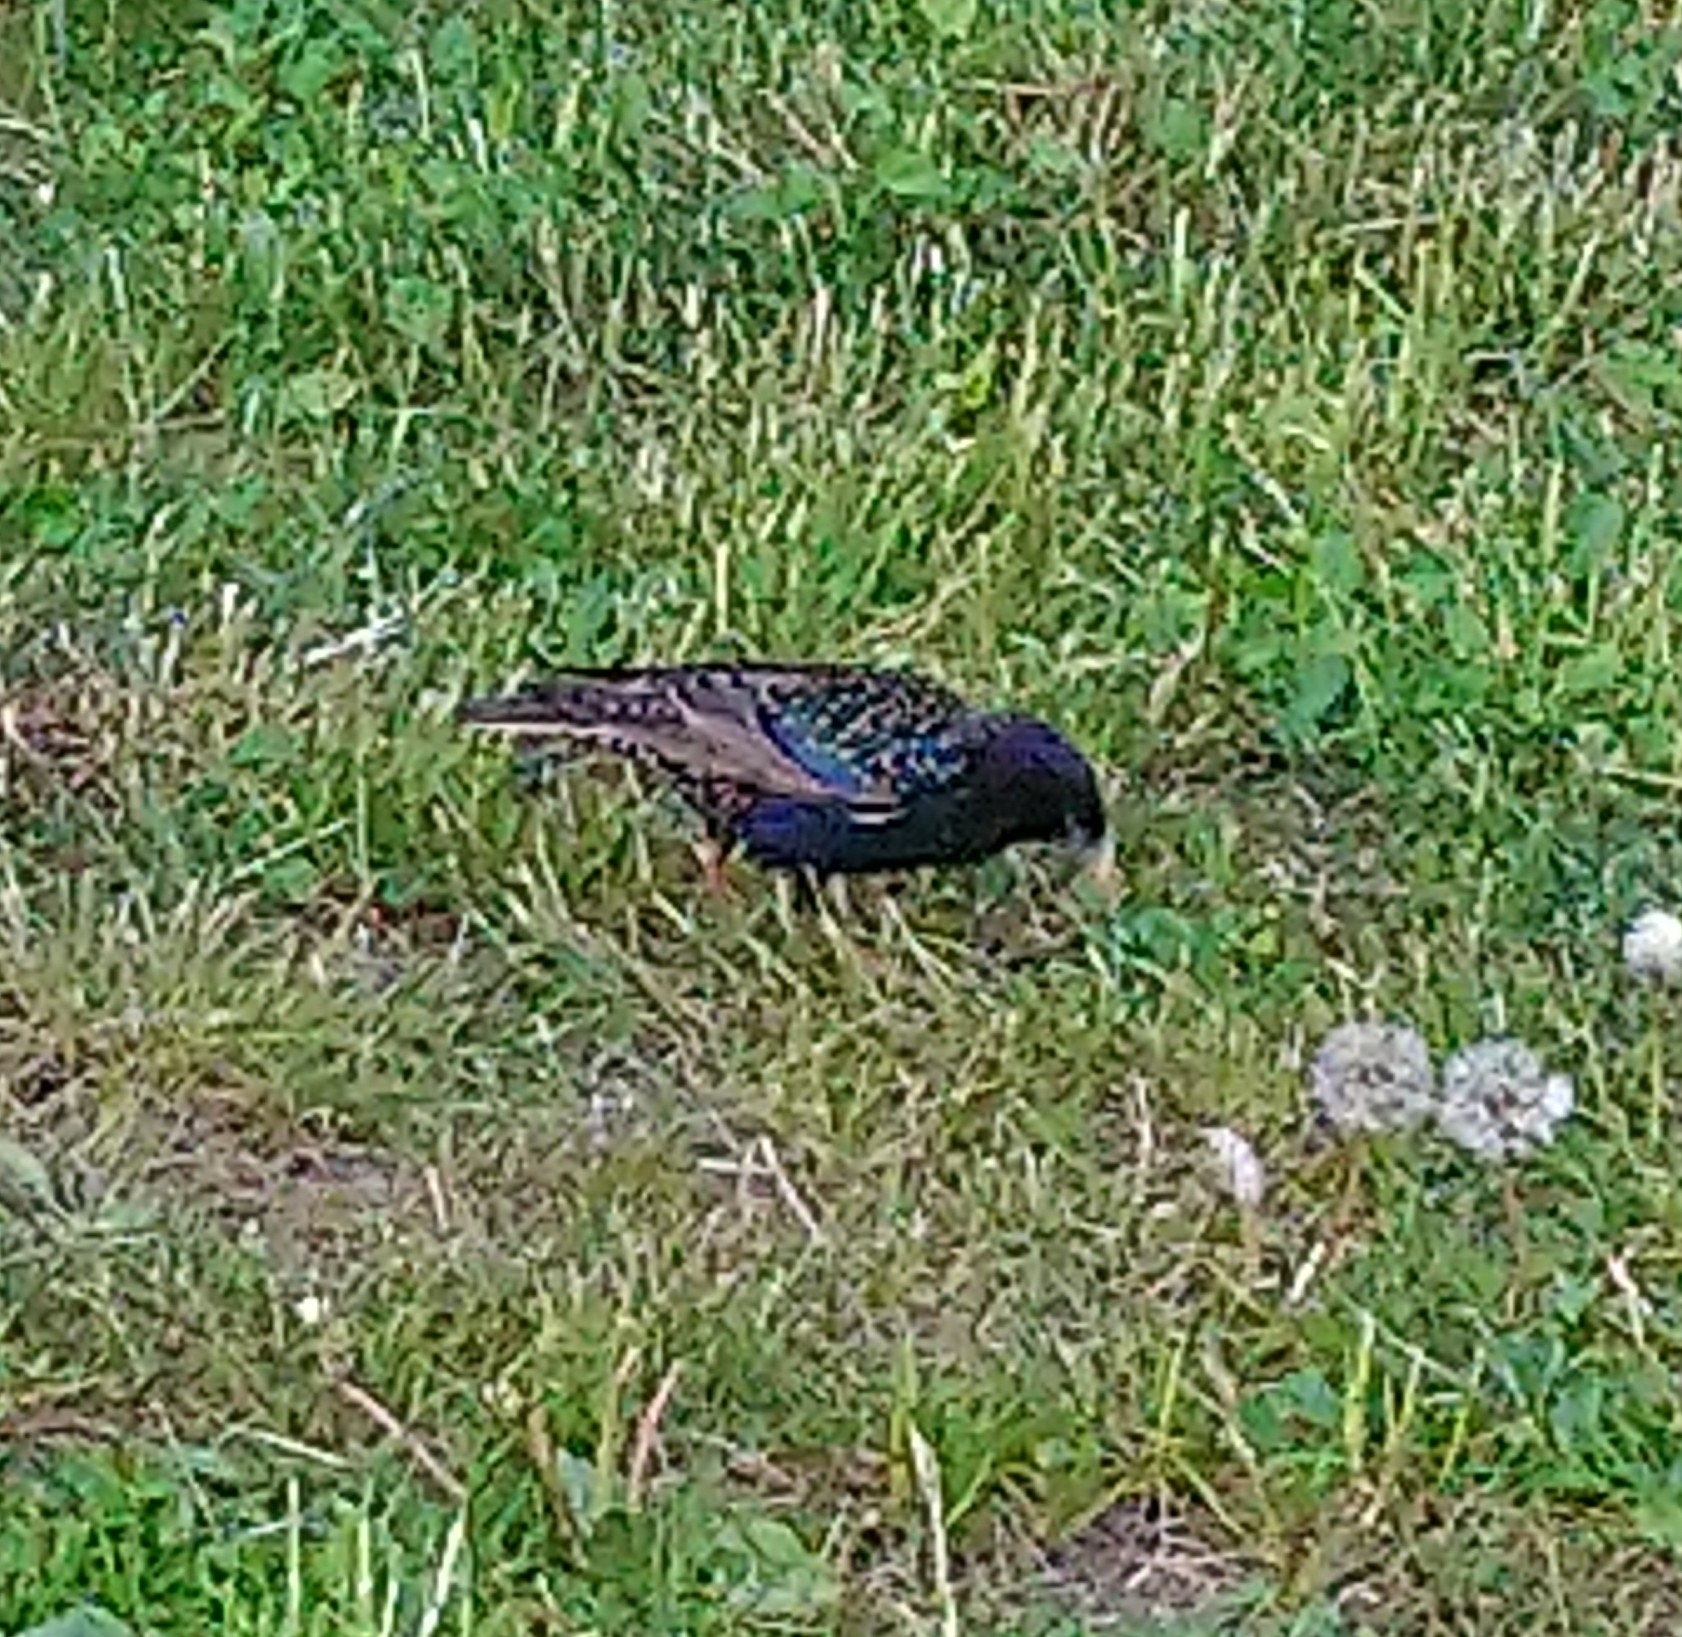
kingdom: Animalia
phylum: Chordata
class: Aves
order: Passeriformes
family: Sturnidae
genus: Sturnus
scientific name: Sturnus vulgaris
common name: Common starling
